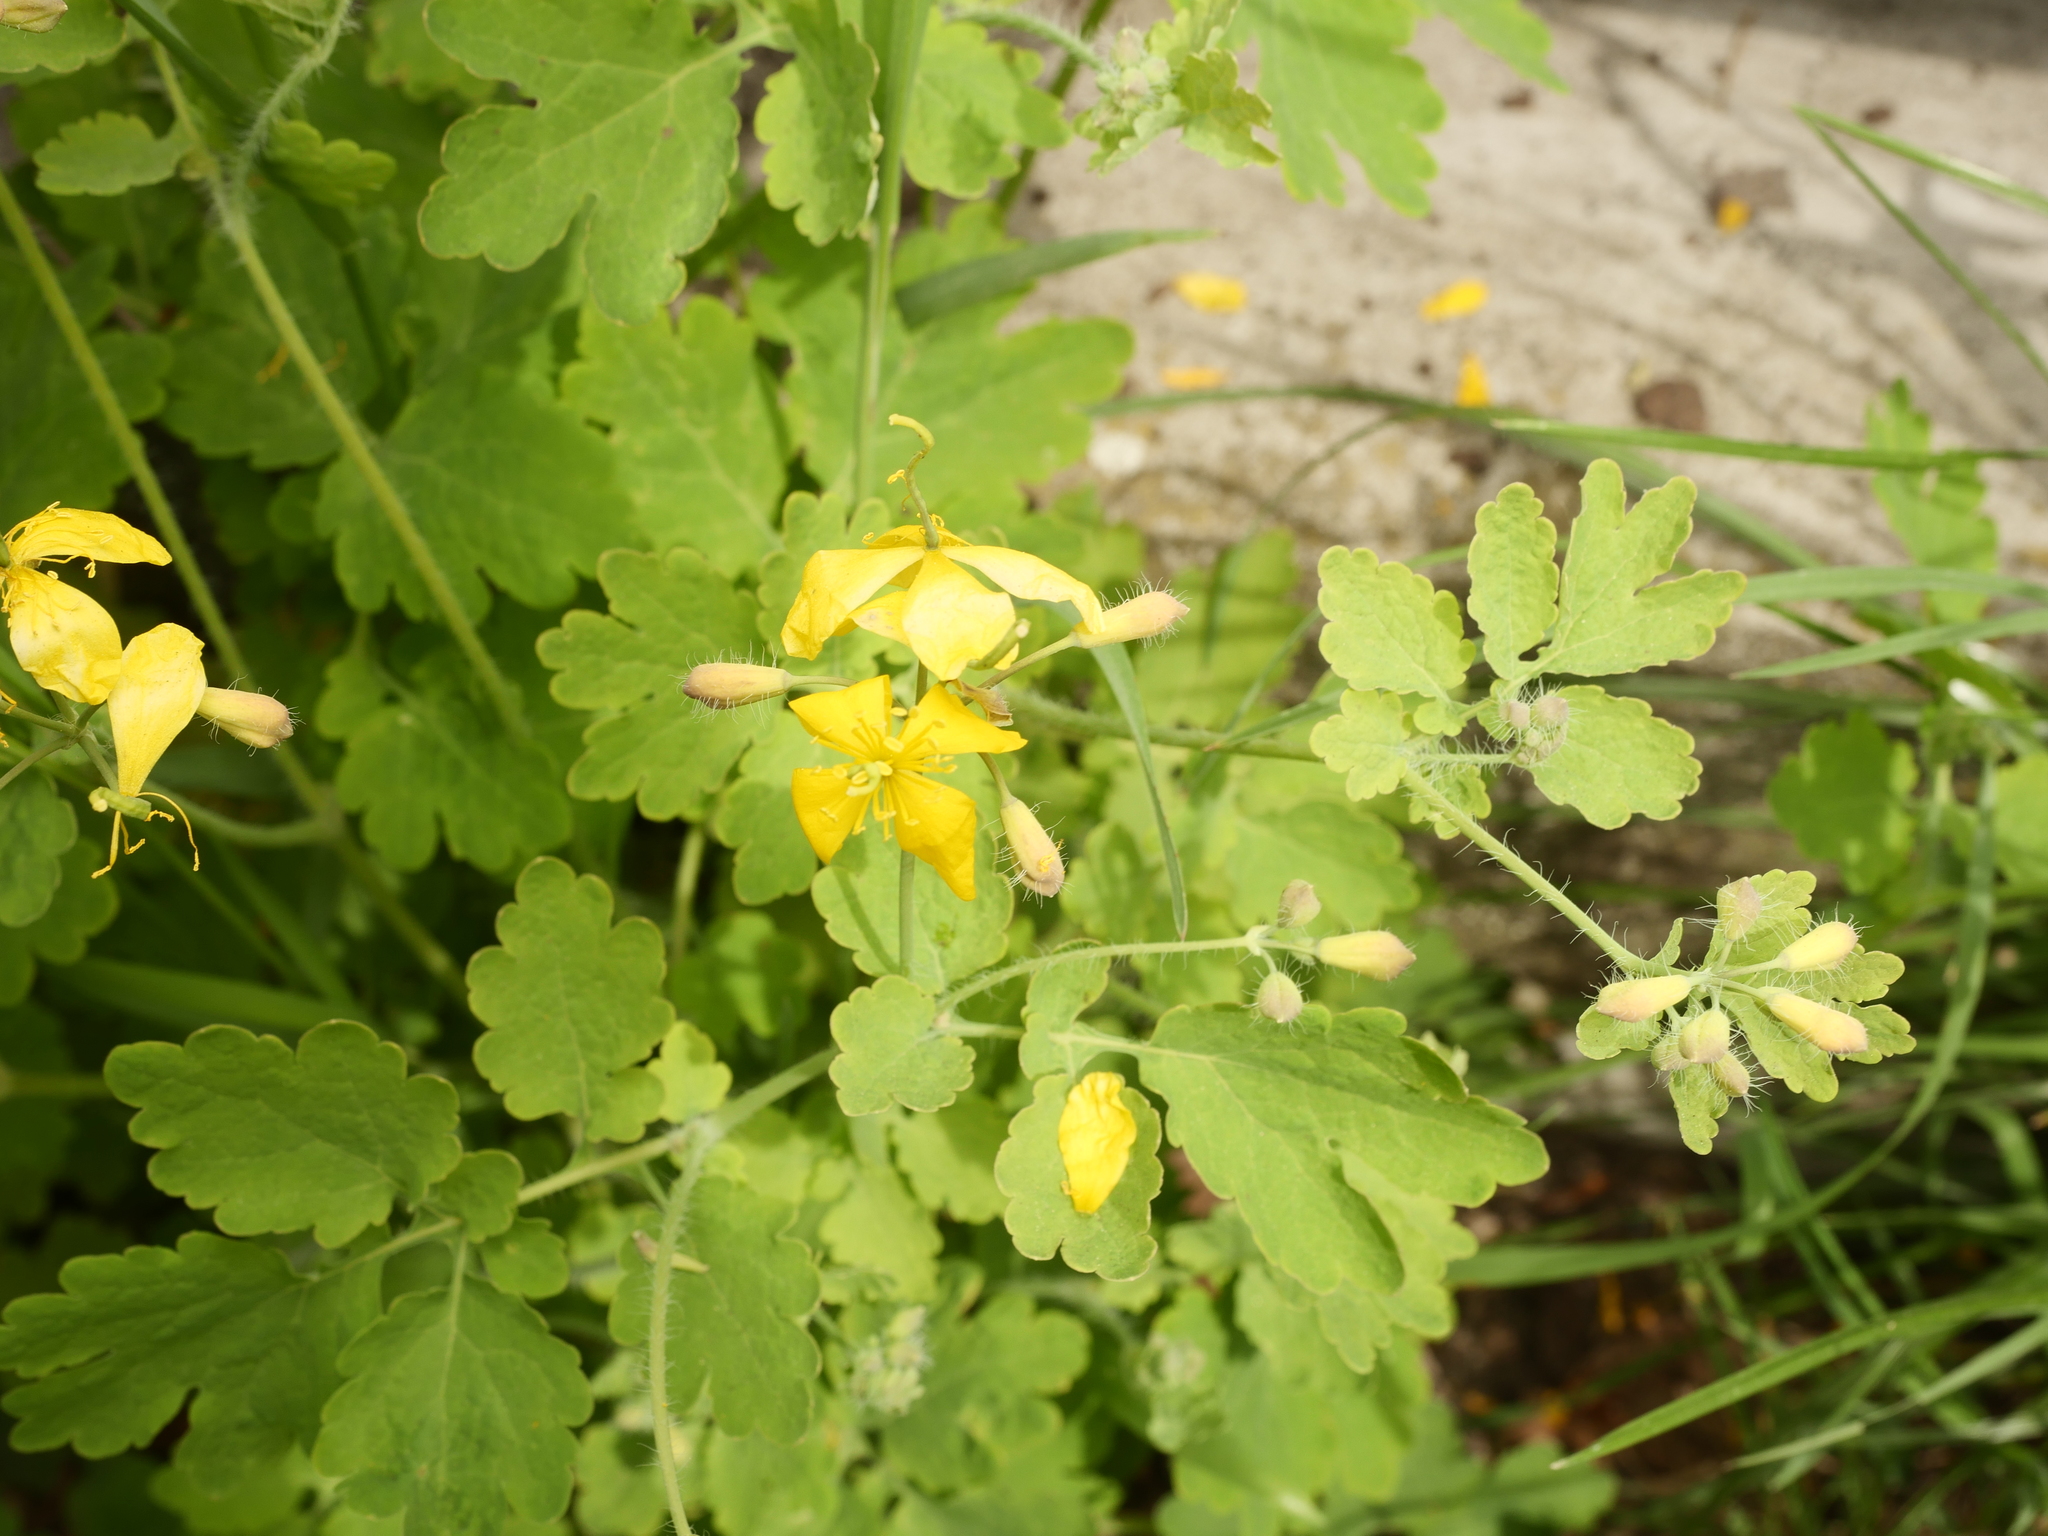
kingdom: Plantae
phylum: Tracheophyta
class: Magnoliopsida
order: Ranunculales
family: Papaveraceae
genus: Chelidonium
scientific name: Chelidonium majus
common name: Greater celandine
